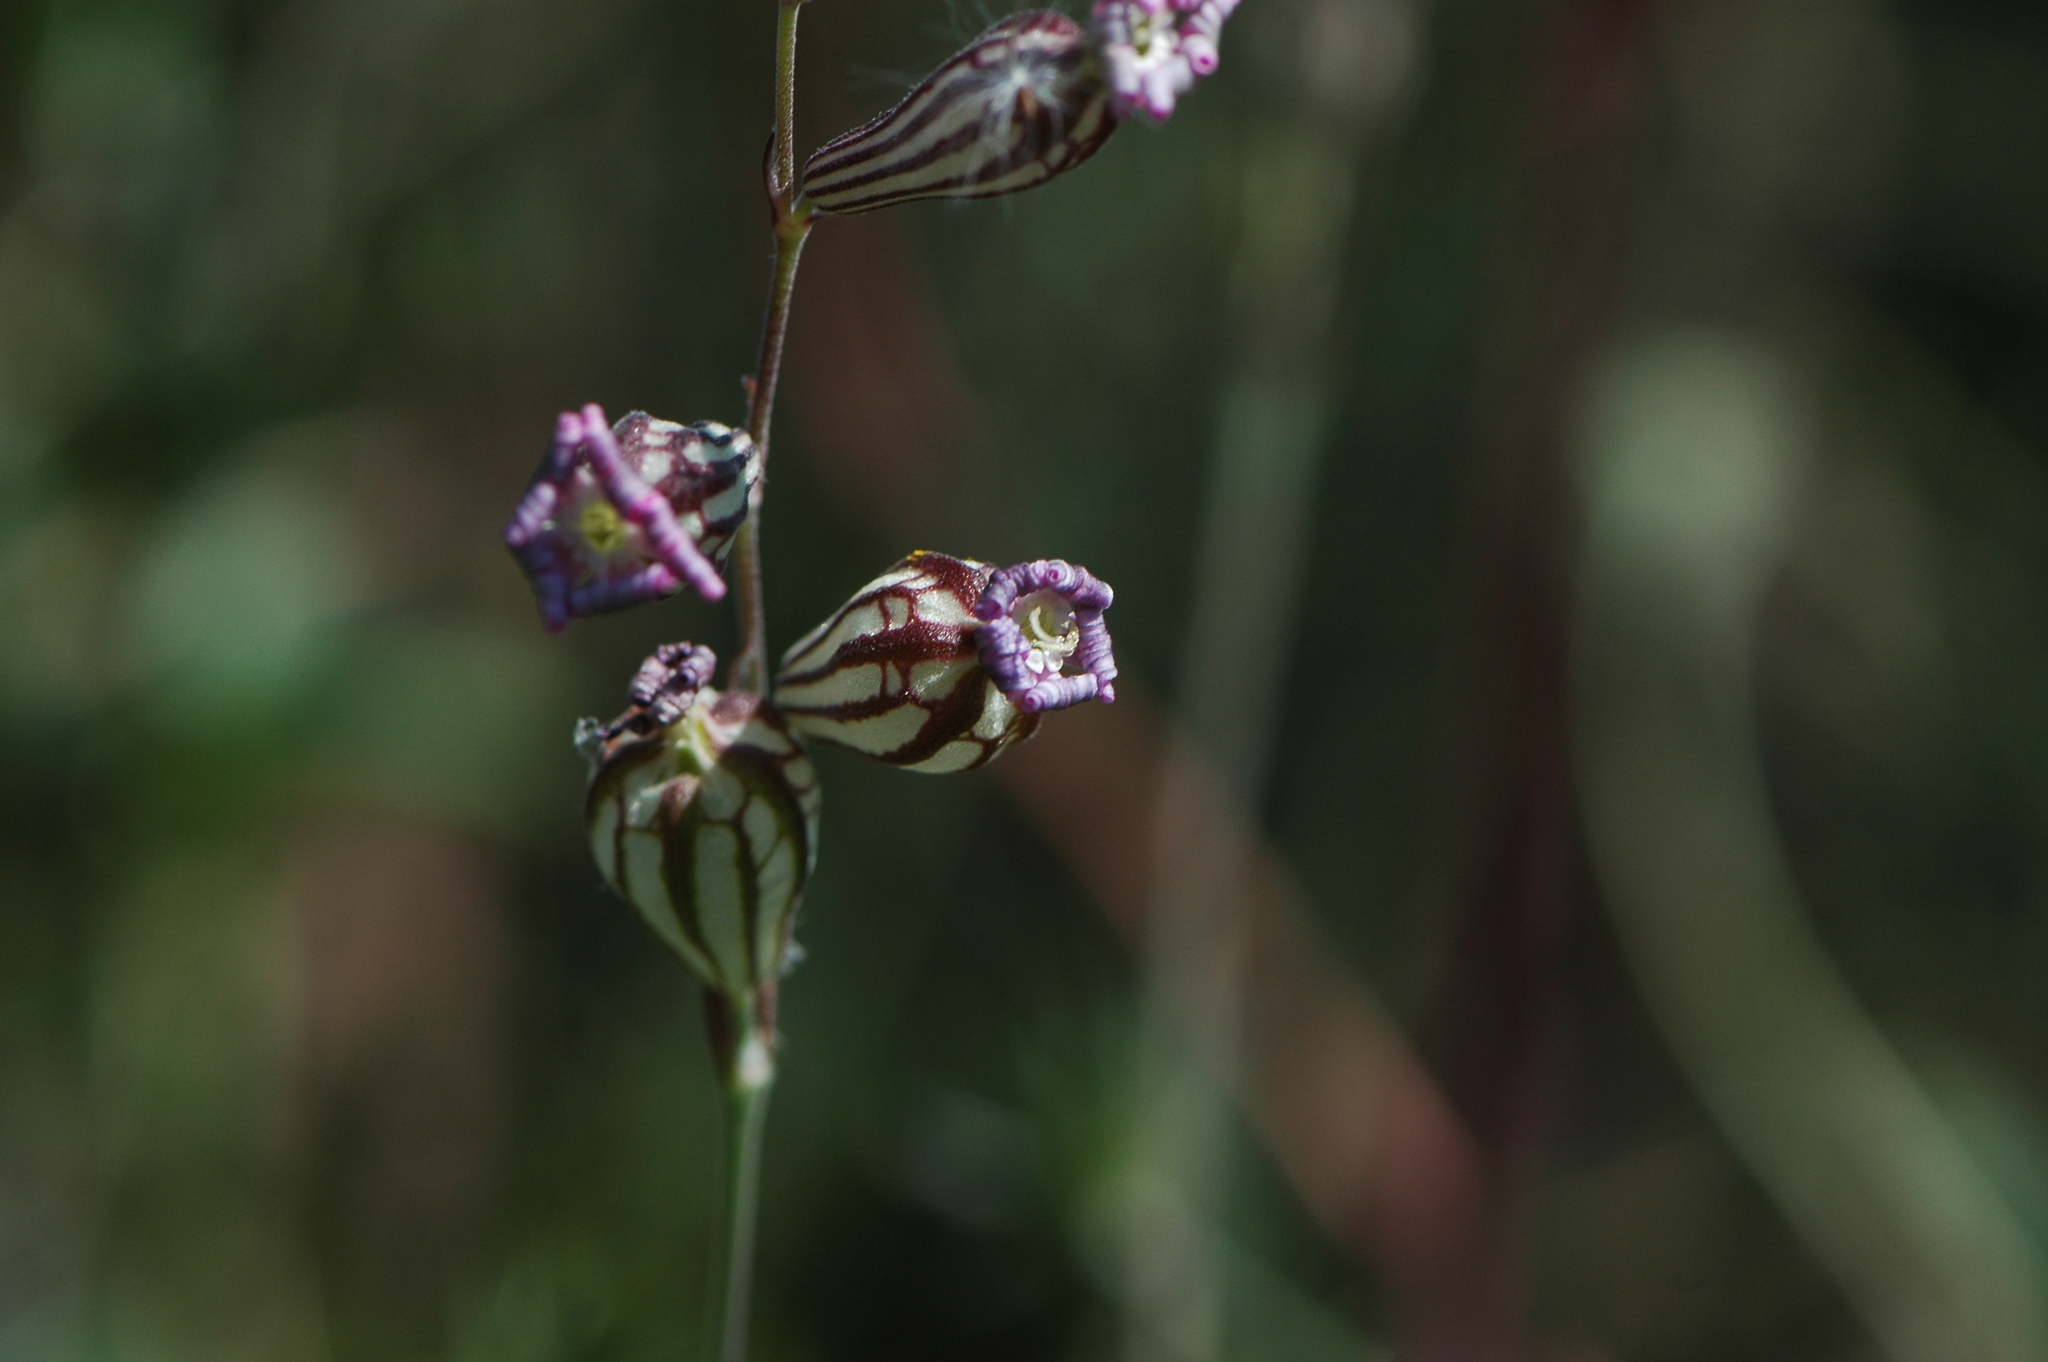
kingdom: Plantae
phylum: Tracheophyta
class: Magnoliopsida
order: Caryophyllales
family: Caryophyllaceae
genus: Silene
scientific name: Silene secundiflora
